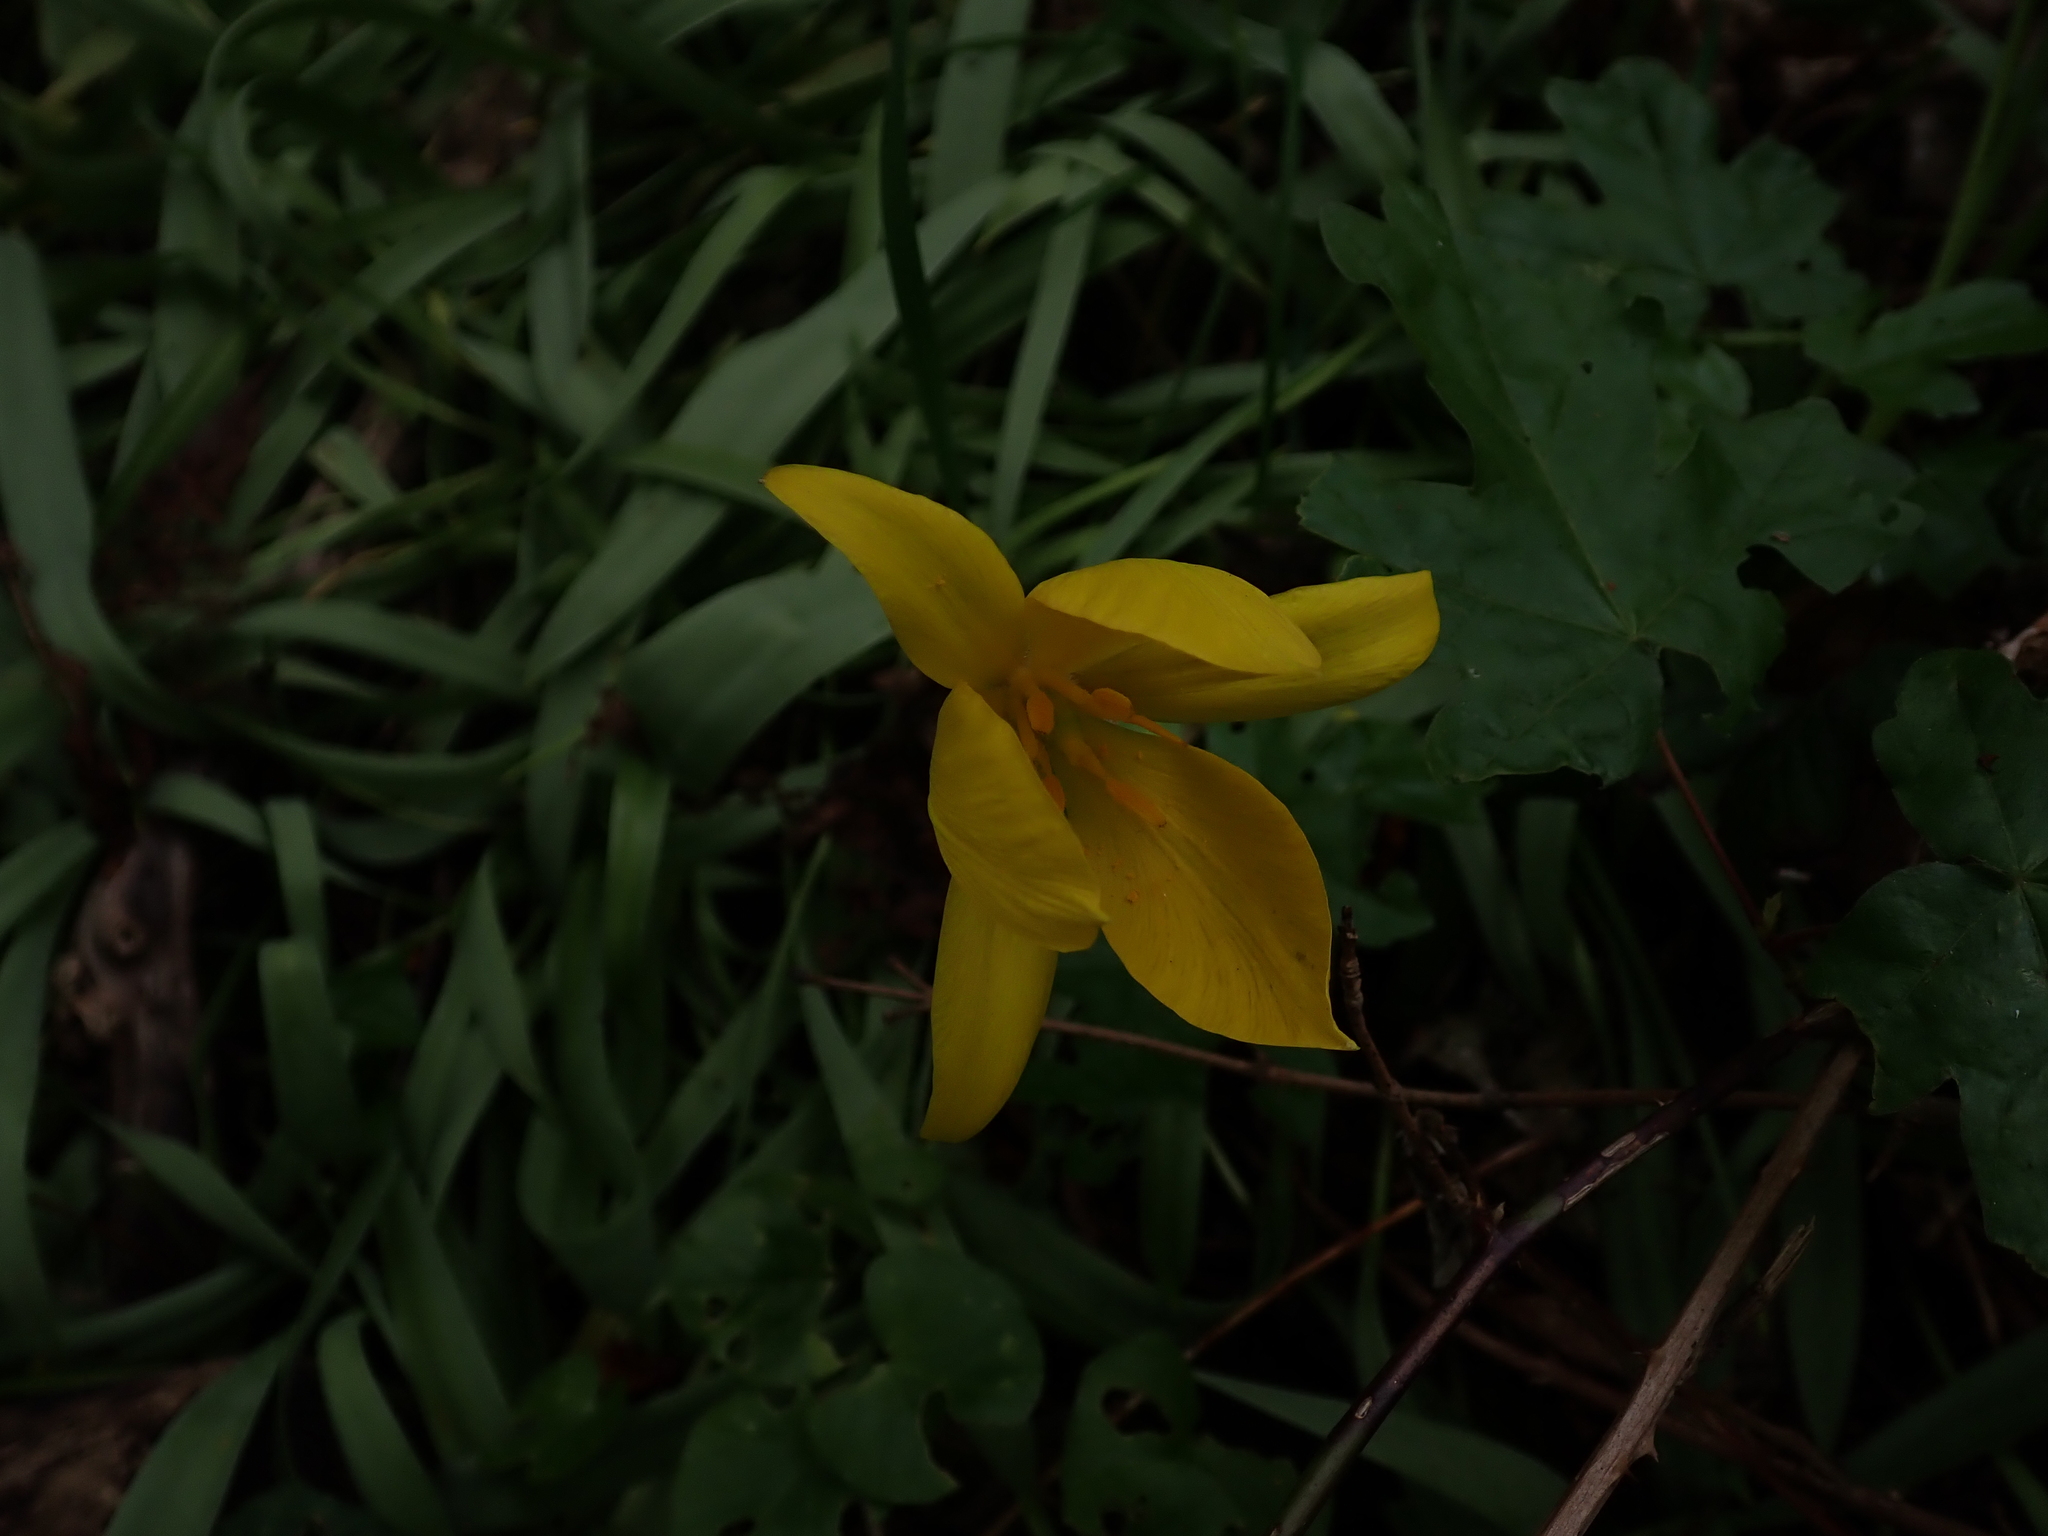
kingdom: Plantae
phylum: Tracheophyta
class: Liliopsida
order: Liliales
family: Liliaceae
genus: Tulipa
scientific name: Tulipa sylvestris
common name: Wild tulip
